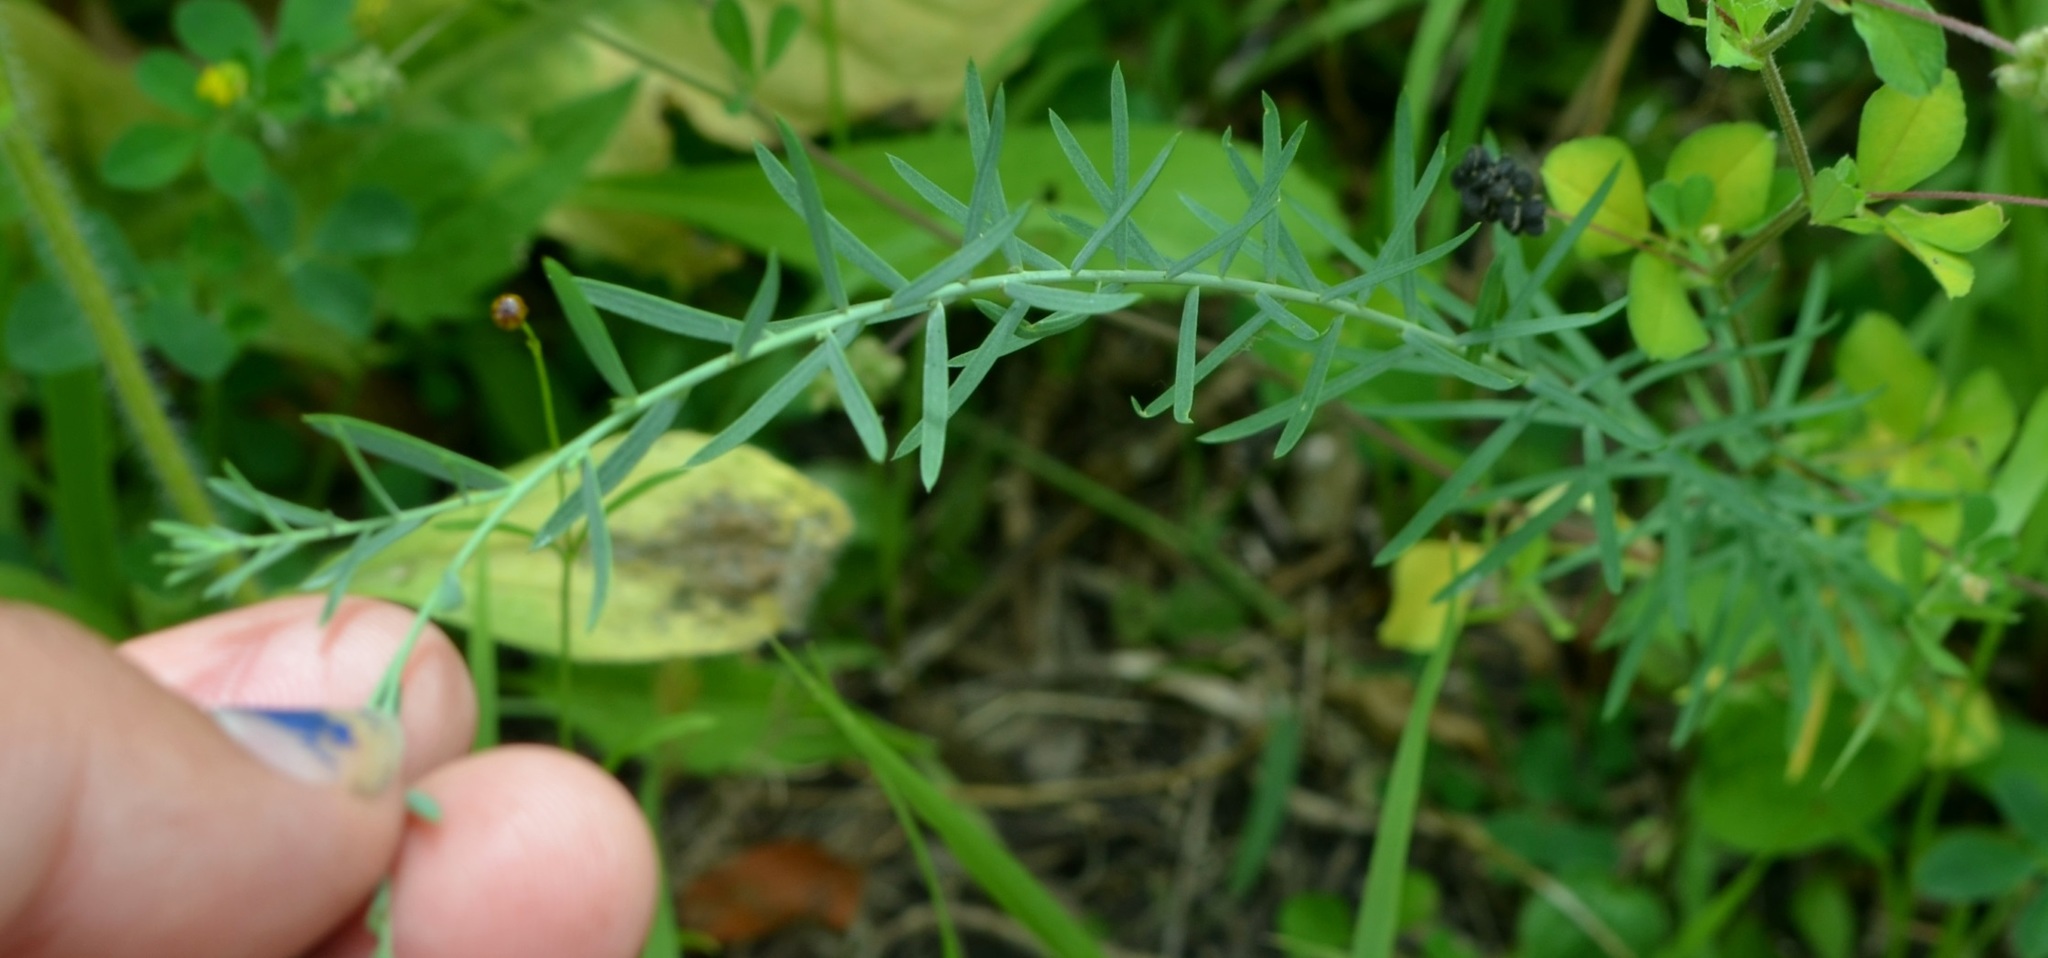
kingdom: Plantae
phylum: Tracheophyta
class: Magnoliopsida
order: Malpighiales
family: Linaceae
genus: Linum
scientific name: Linum perenne
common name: Blue flax
